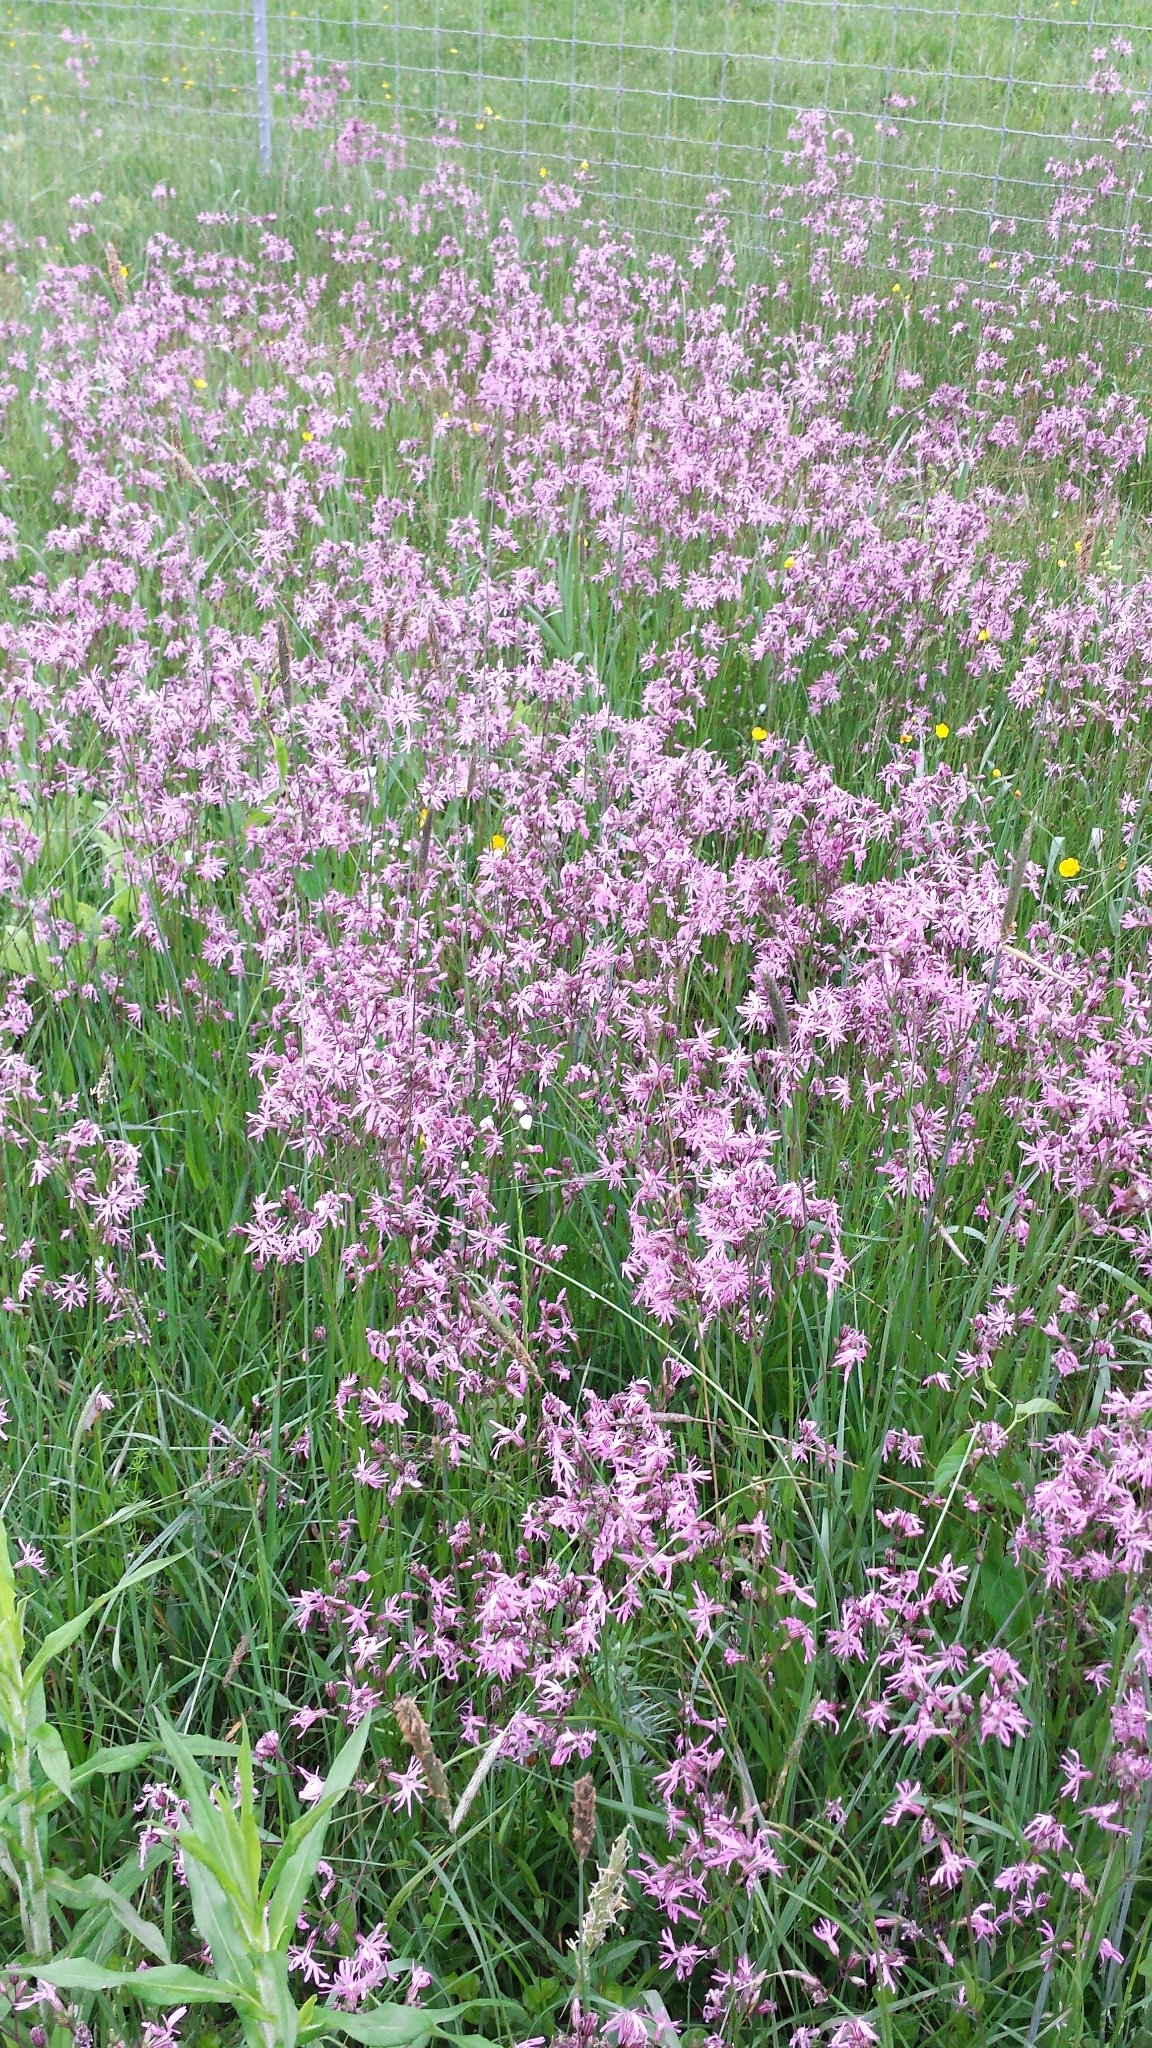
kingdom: Plantae
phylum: Tracheophyta
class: Magnoliopsida
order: Caryophyllales
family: Caryophyllaceae
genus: Silene
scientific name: Silene flos-cuculi
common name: Ragged-robin
